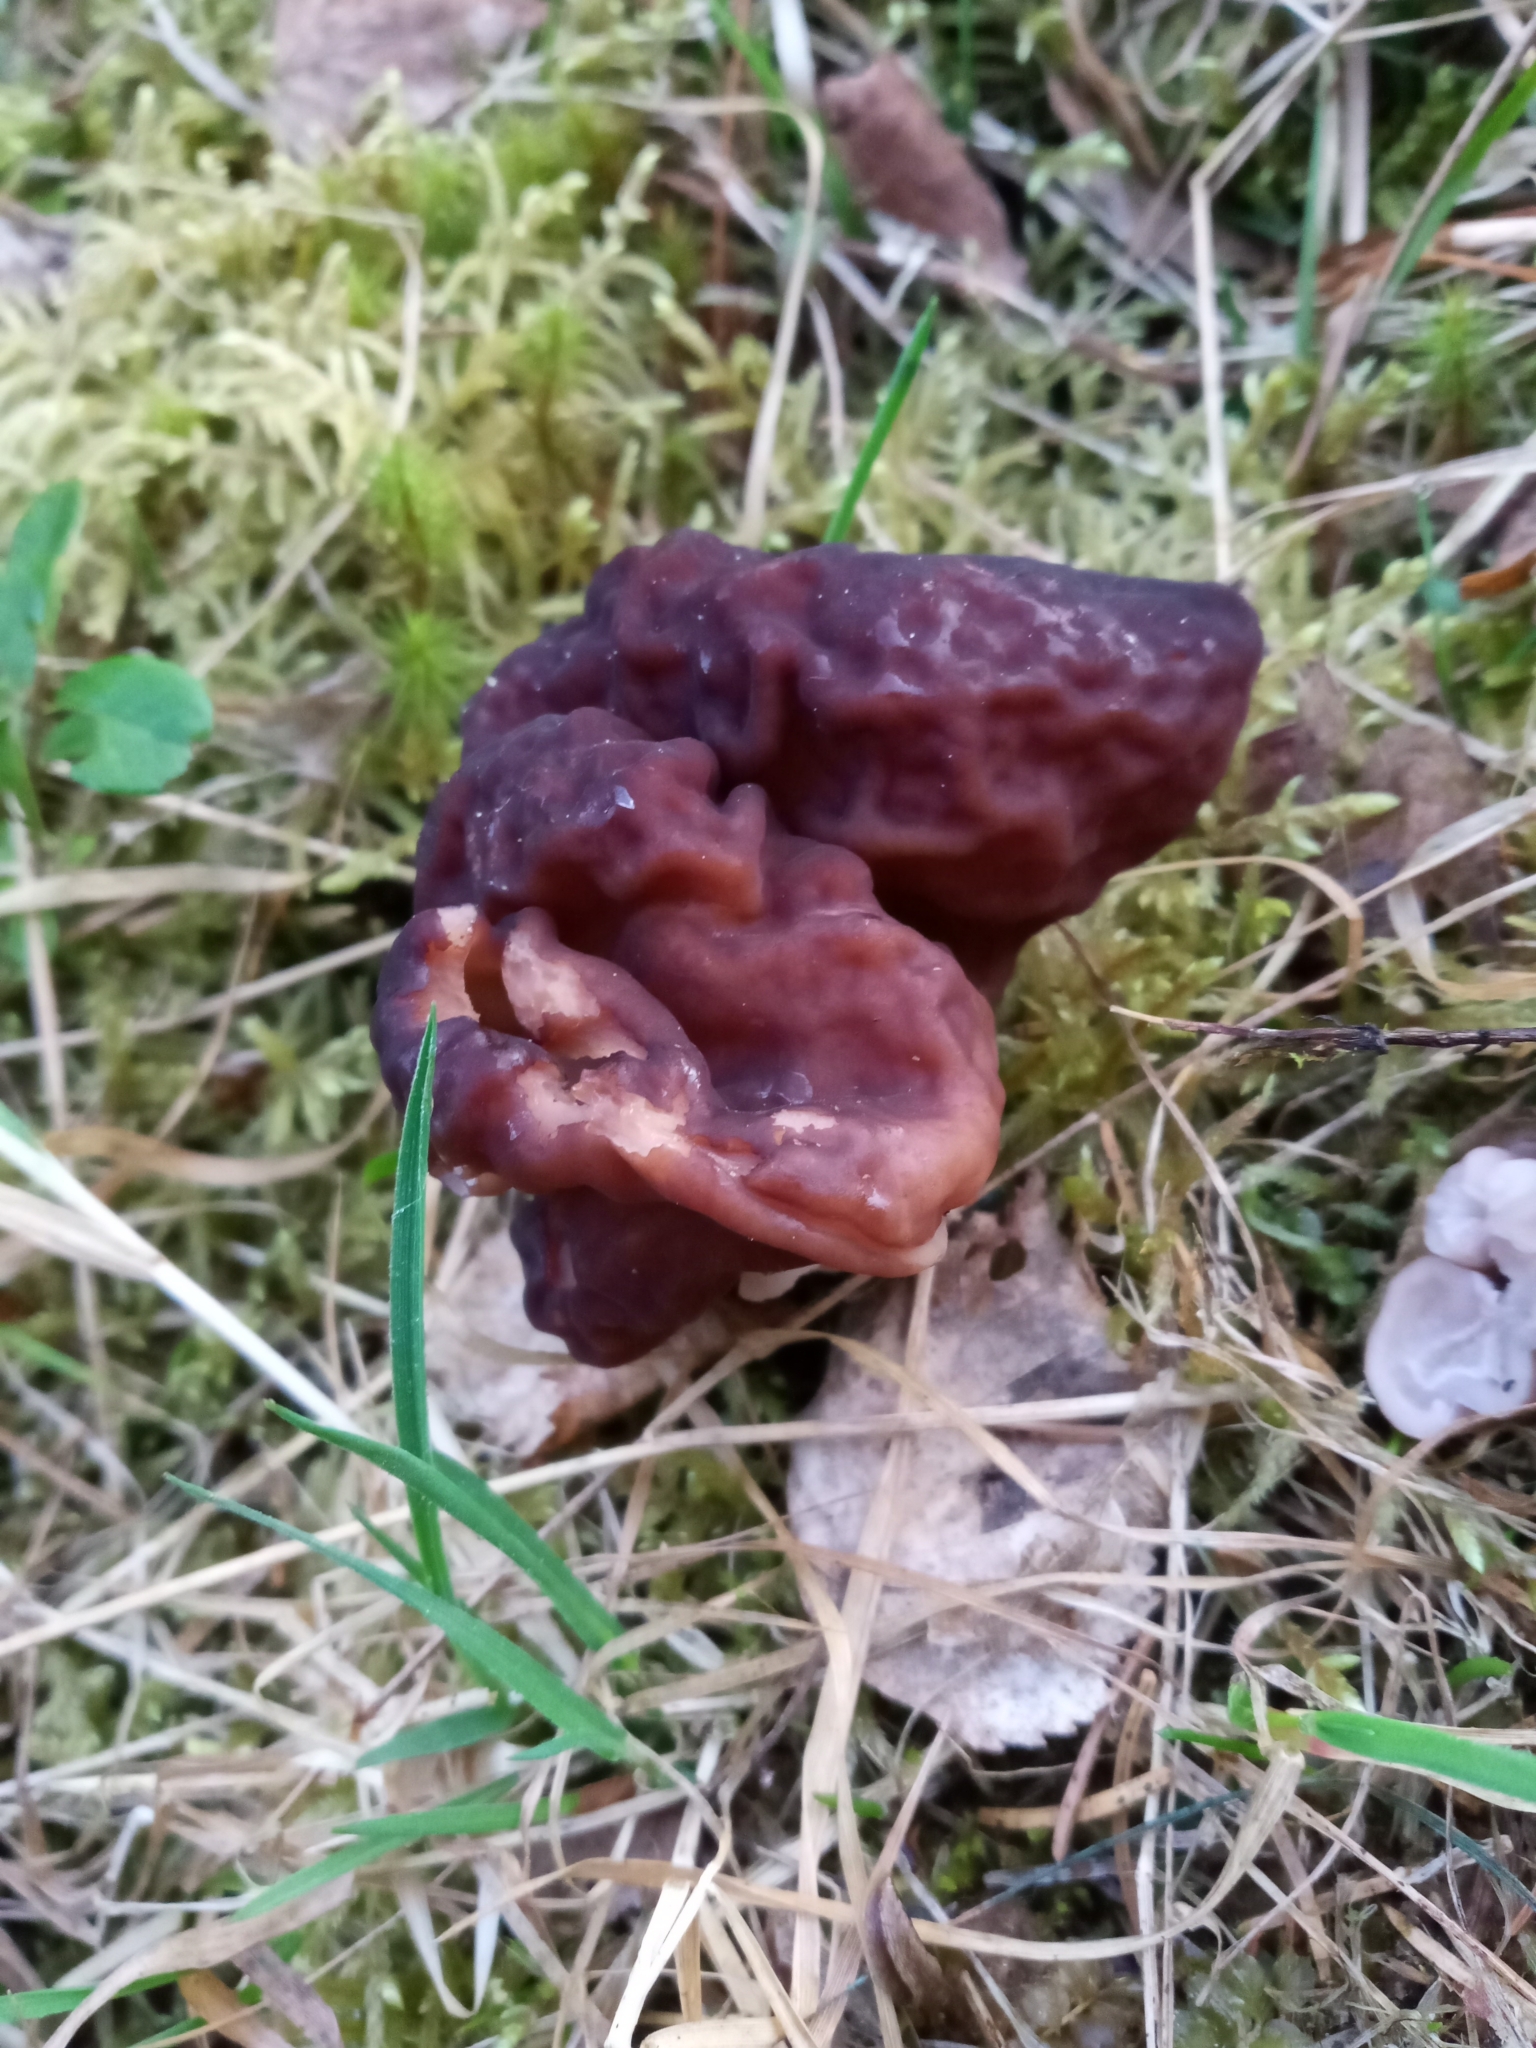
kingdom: Fungi
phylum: Ascomycota
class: Pezizomycetes
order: Pezizales
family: Discinaceae
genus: Gyromitra
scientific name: Gyromitra esculenta
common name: False morel
